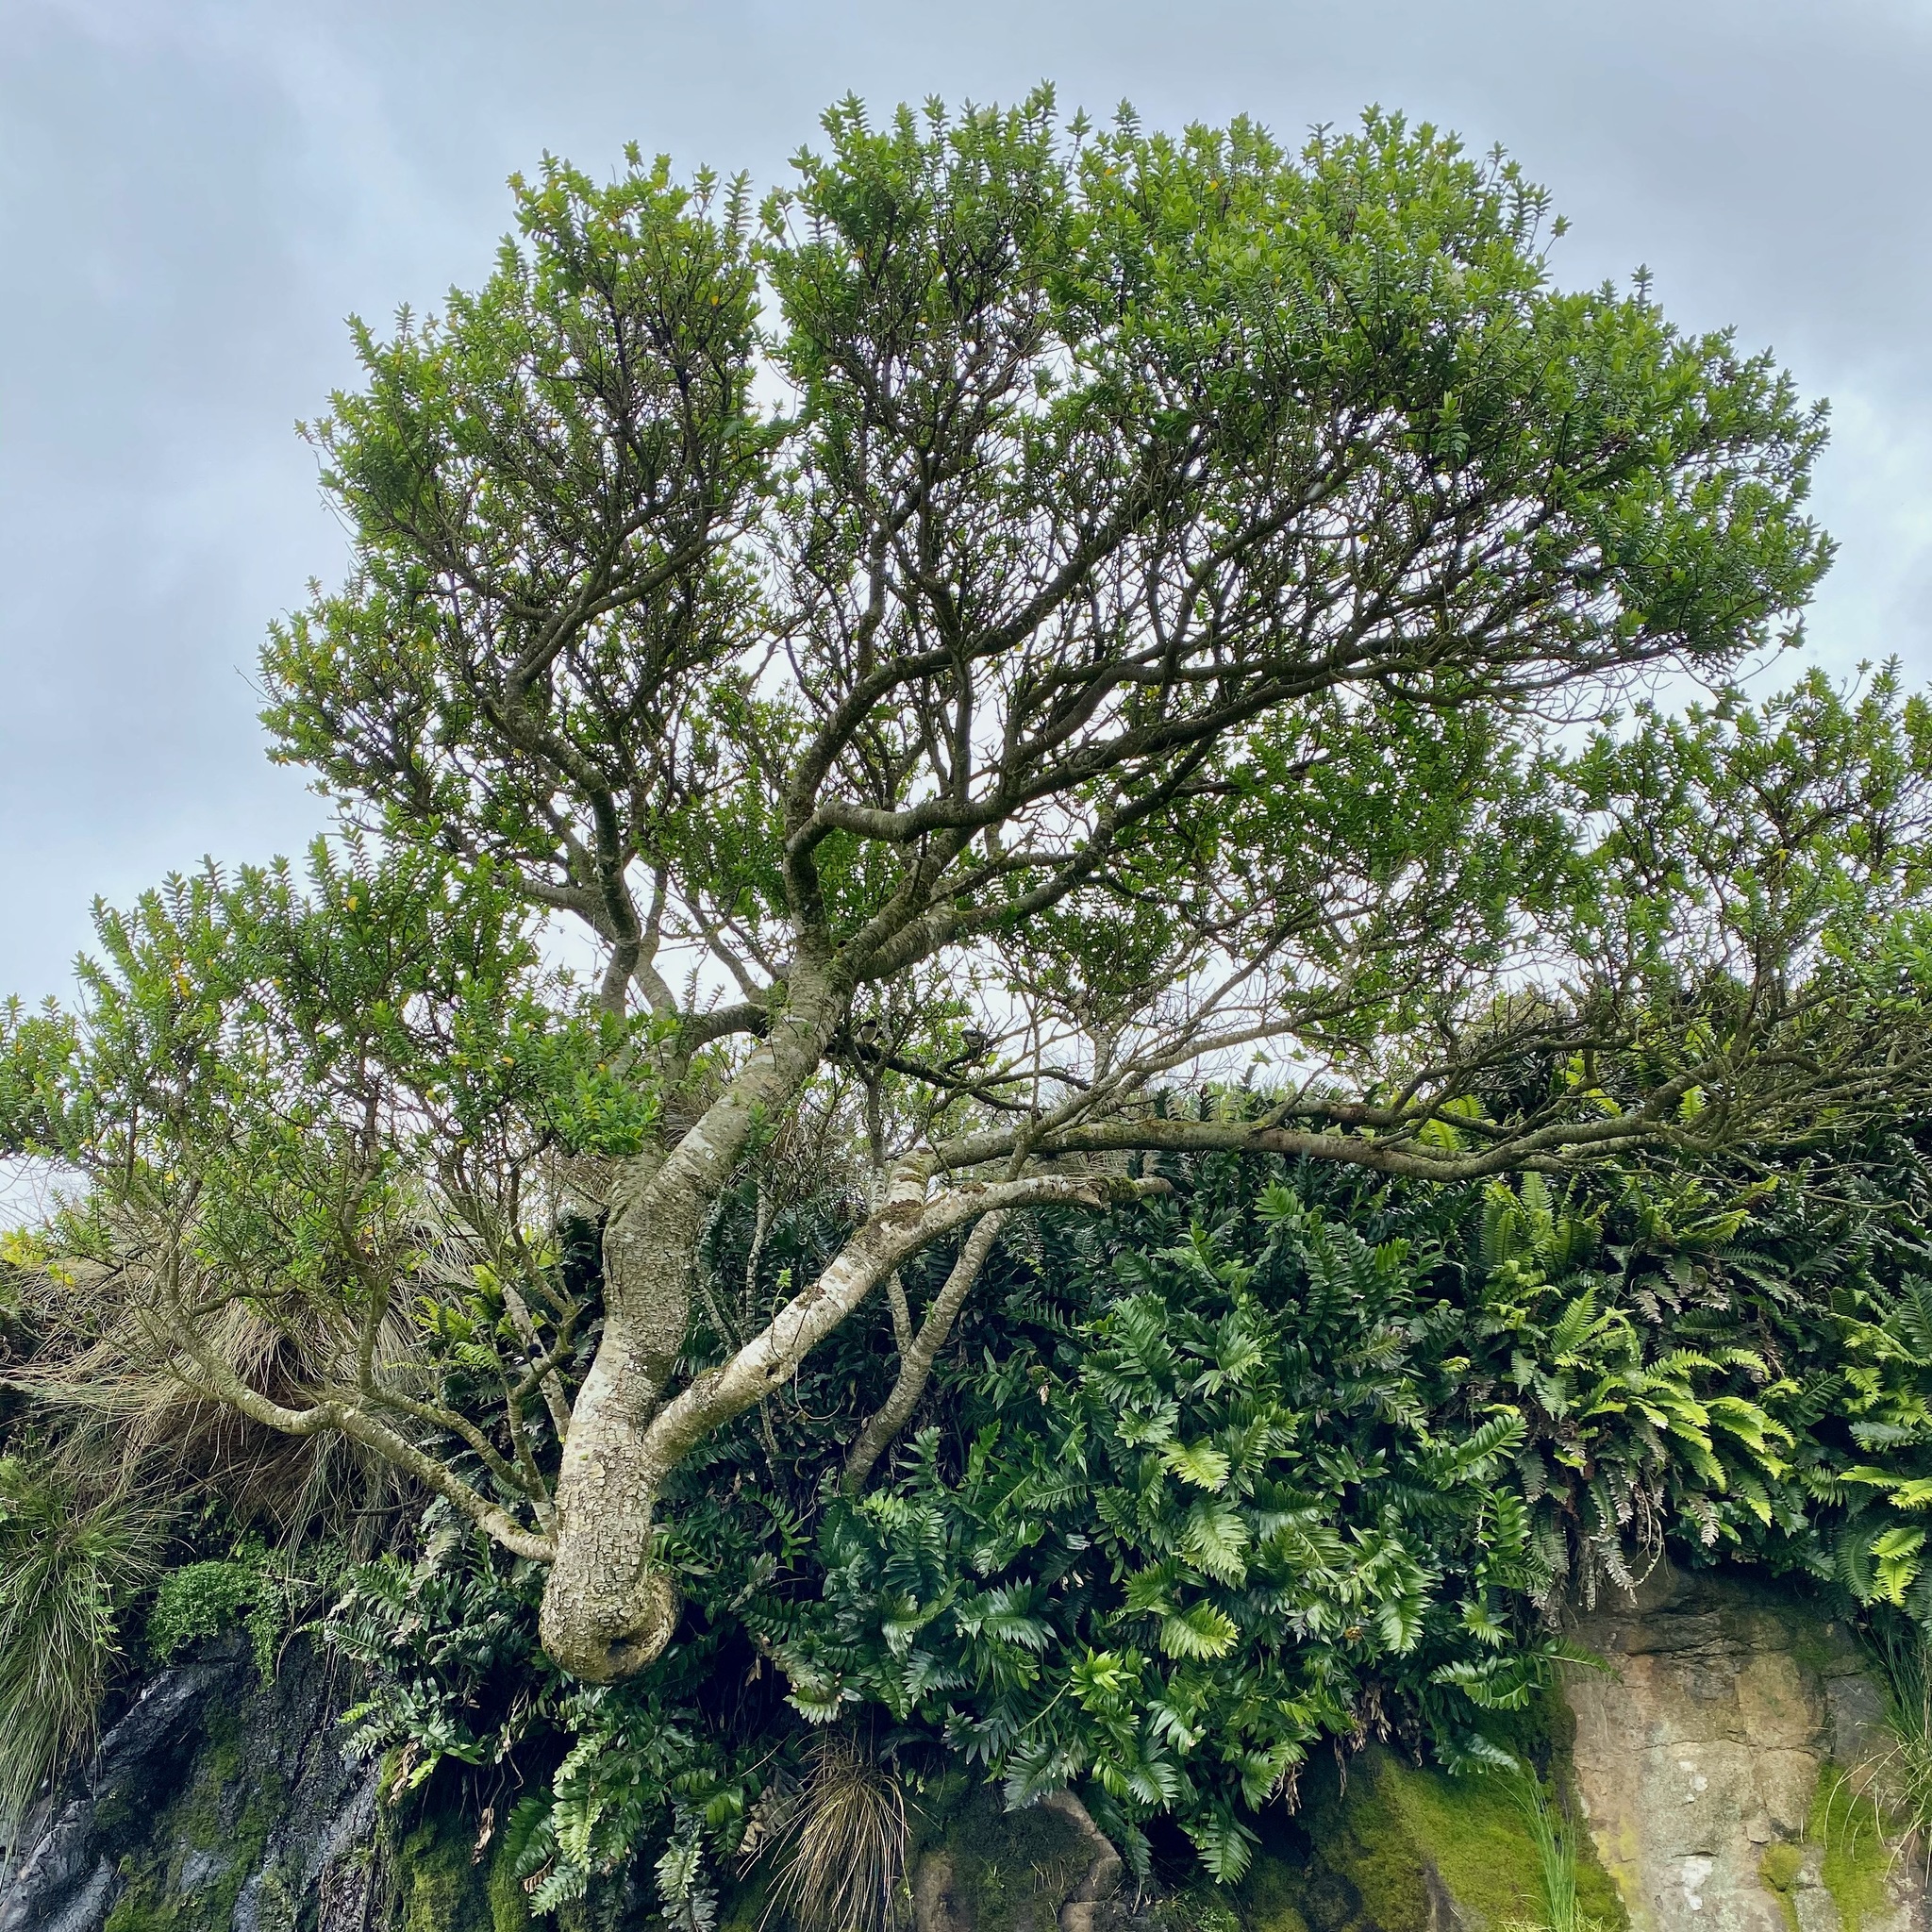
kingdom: Plantae
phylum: Tracheophyta
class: Magnoliopsida
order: Lamiales
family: Plantaginaceae
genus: Veronica
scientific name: Veronica elliptica
